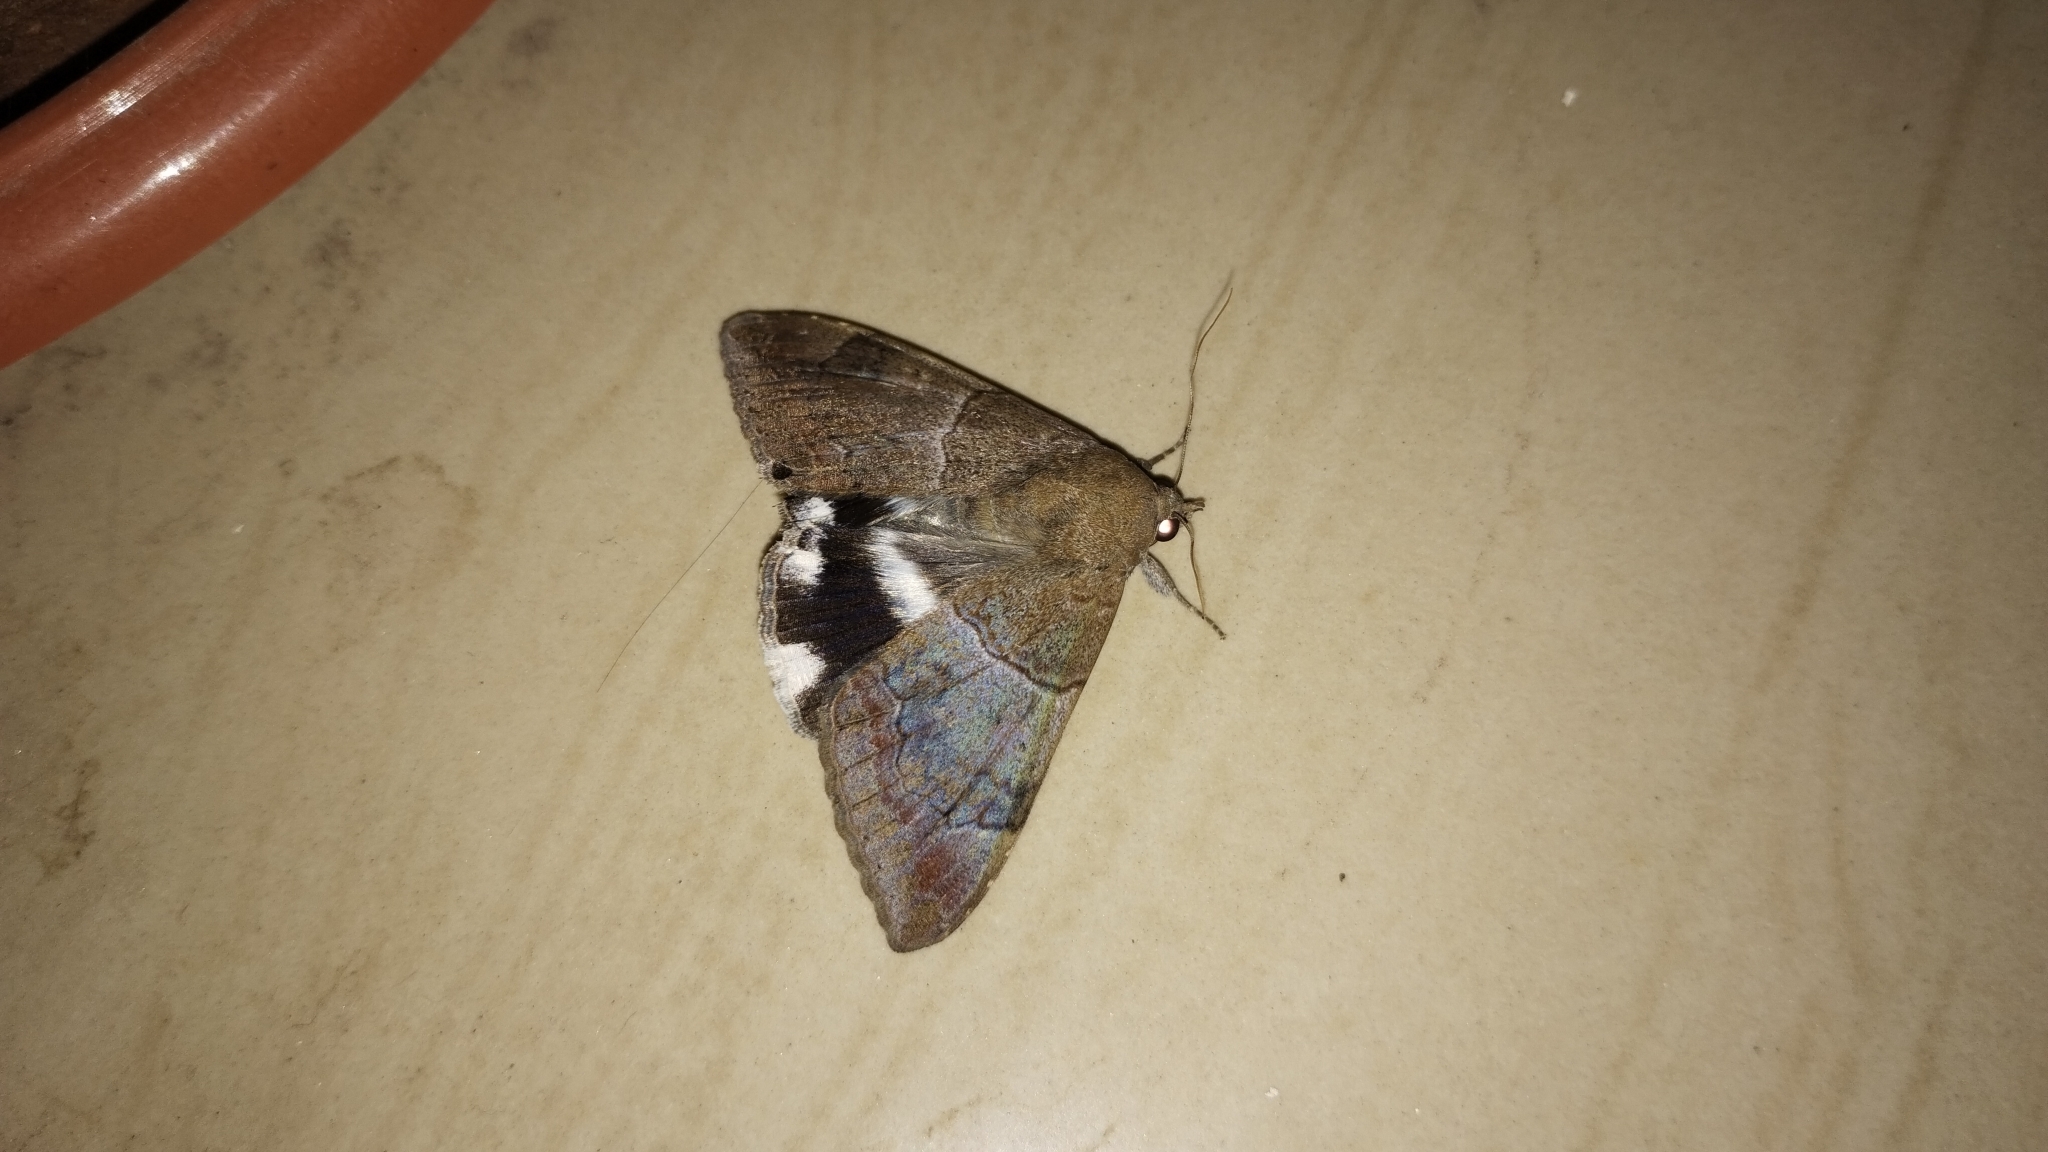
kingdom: Animalia
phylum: Arthropoda
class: Insecta
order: Lepidoptera
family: Erebidae
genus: Achaea
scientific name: Achaea janata
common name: Croton caterpillar
